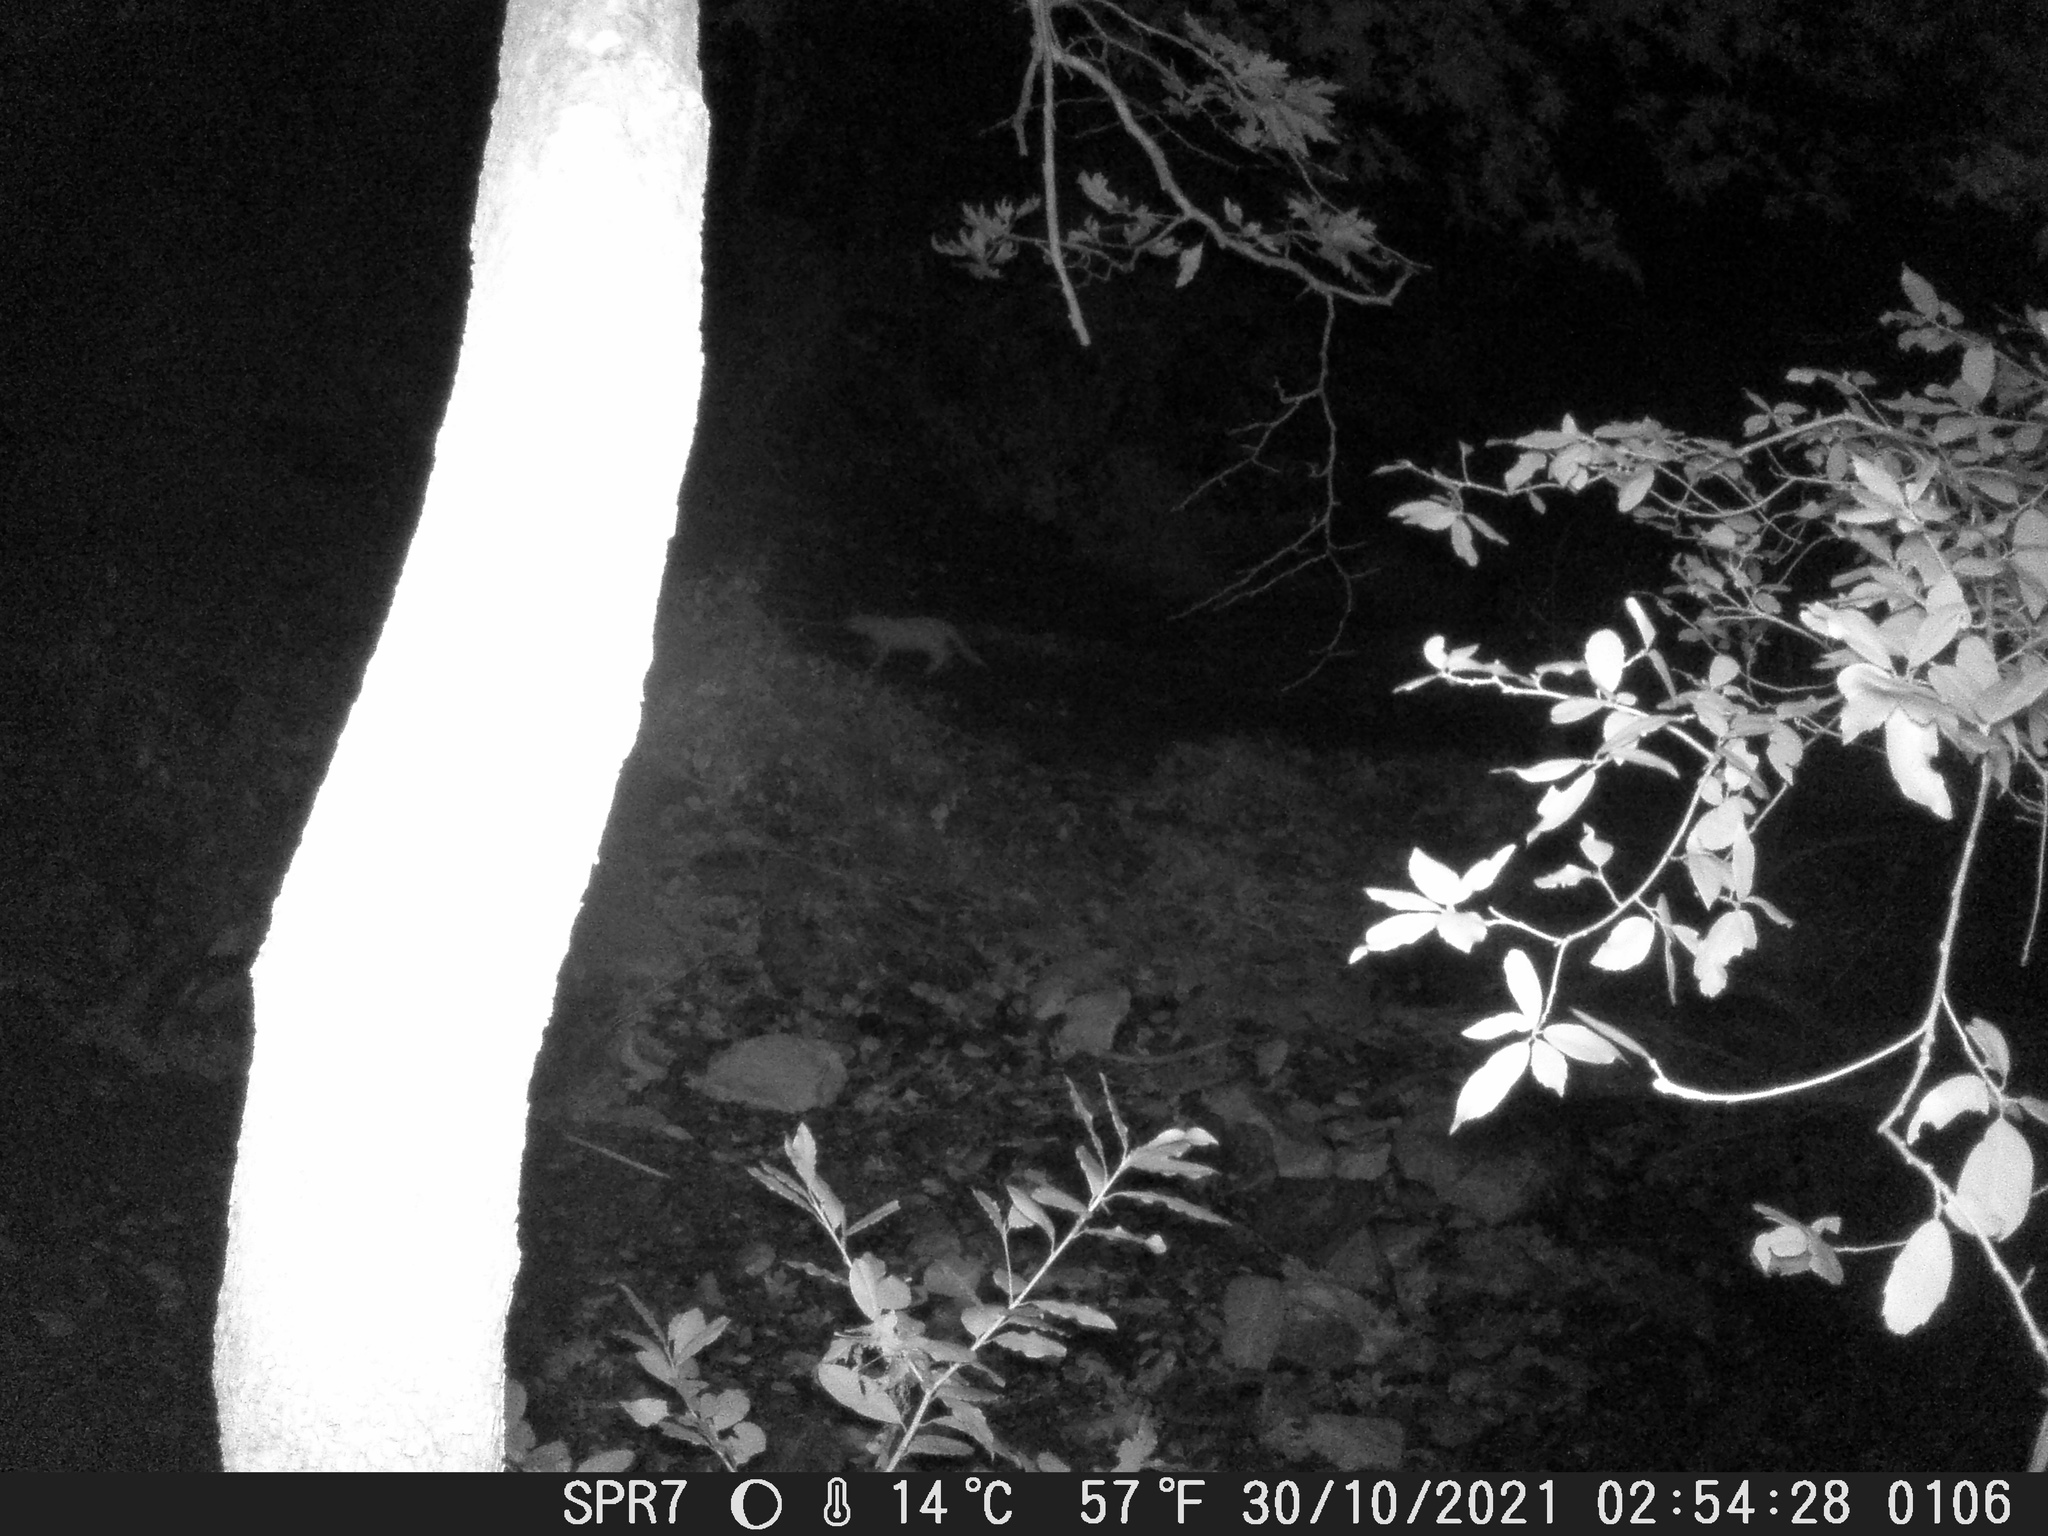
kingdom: Animalia
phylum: Chordata
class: Mammalia
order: Carnivora
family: Felidae
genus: Felis
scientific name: Felis
